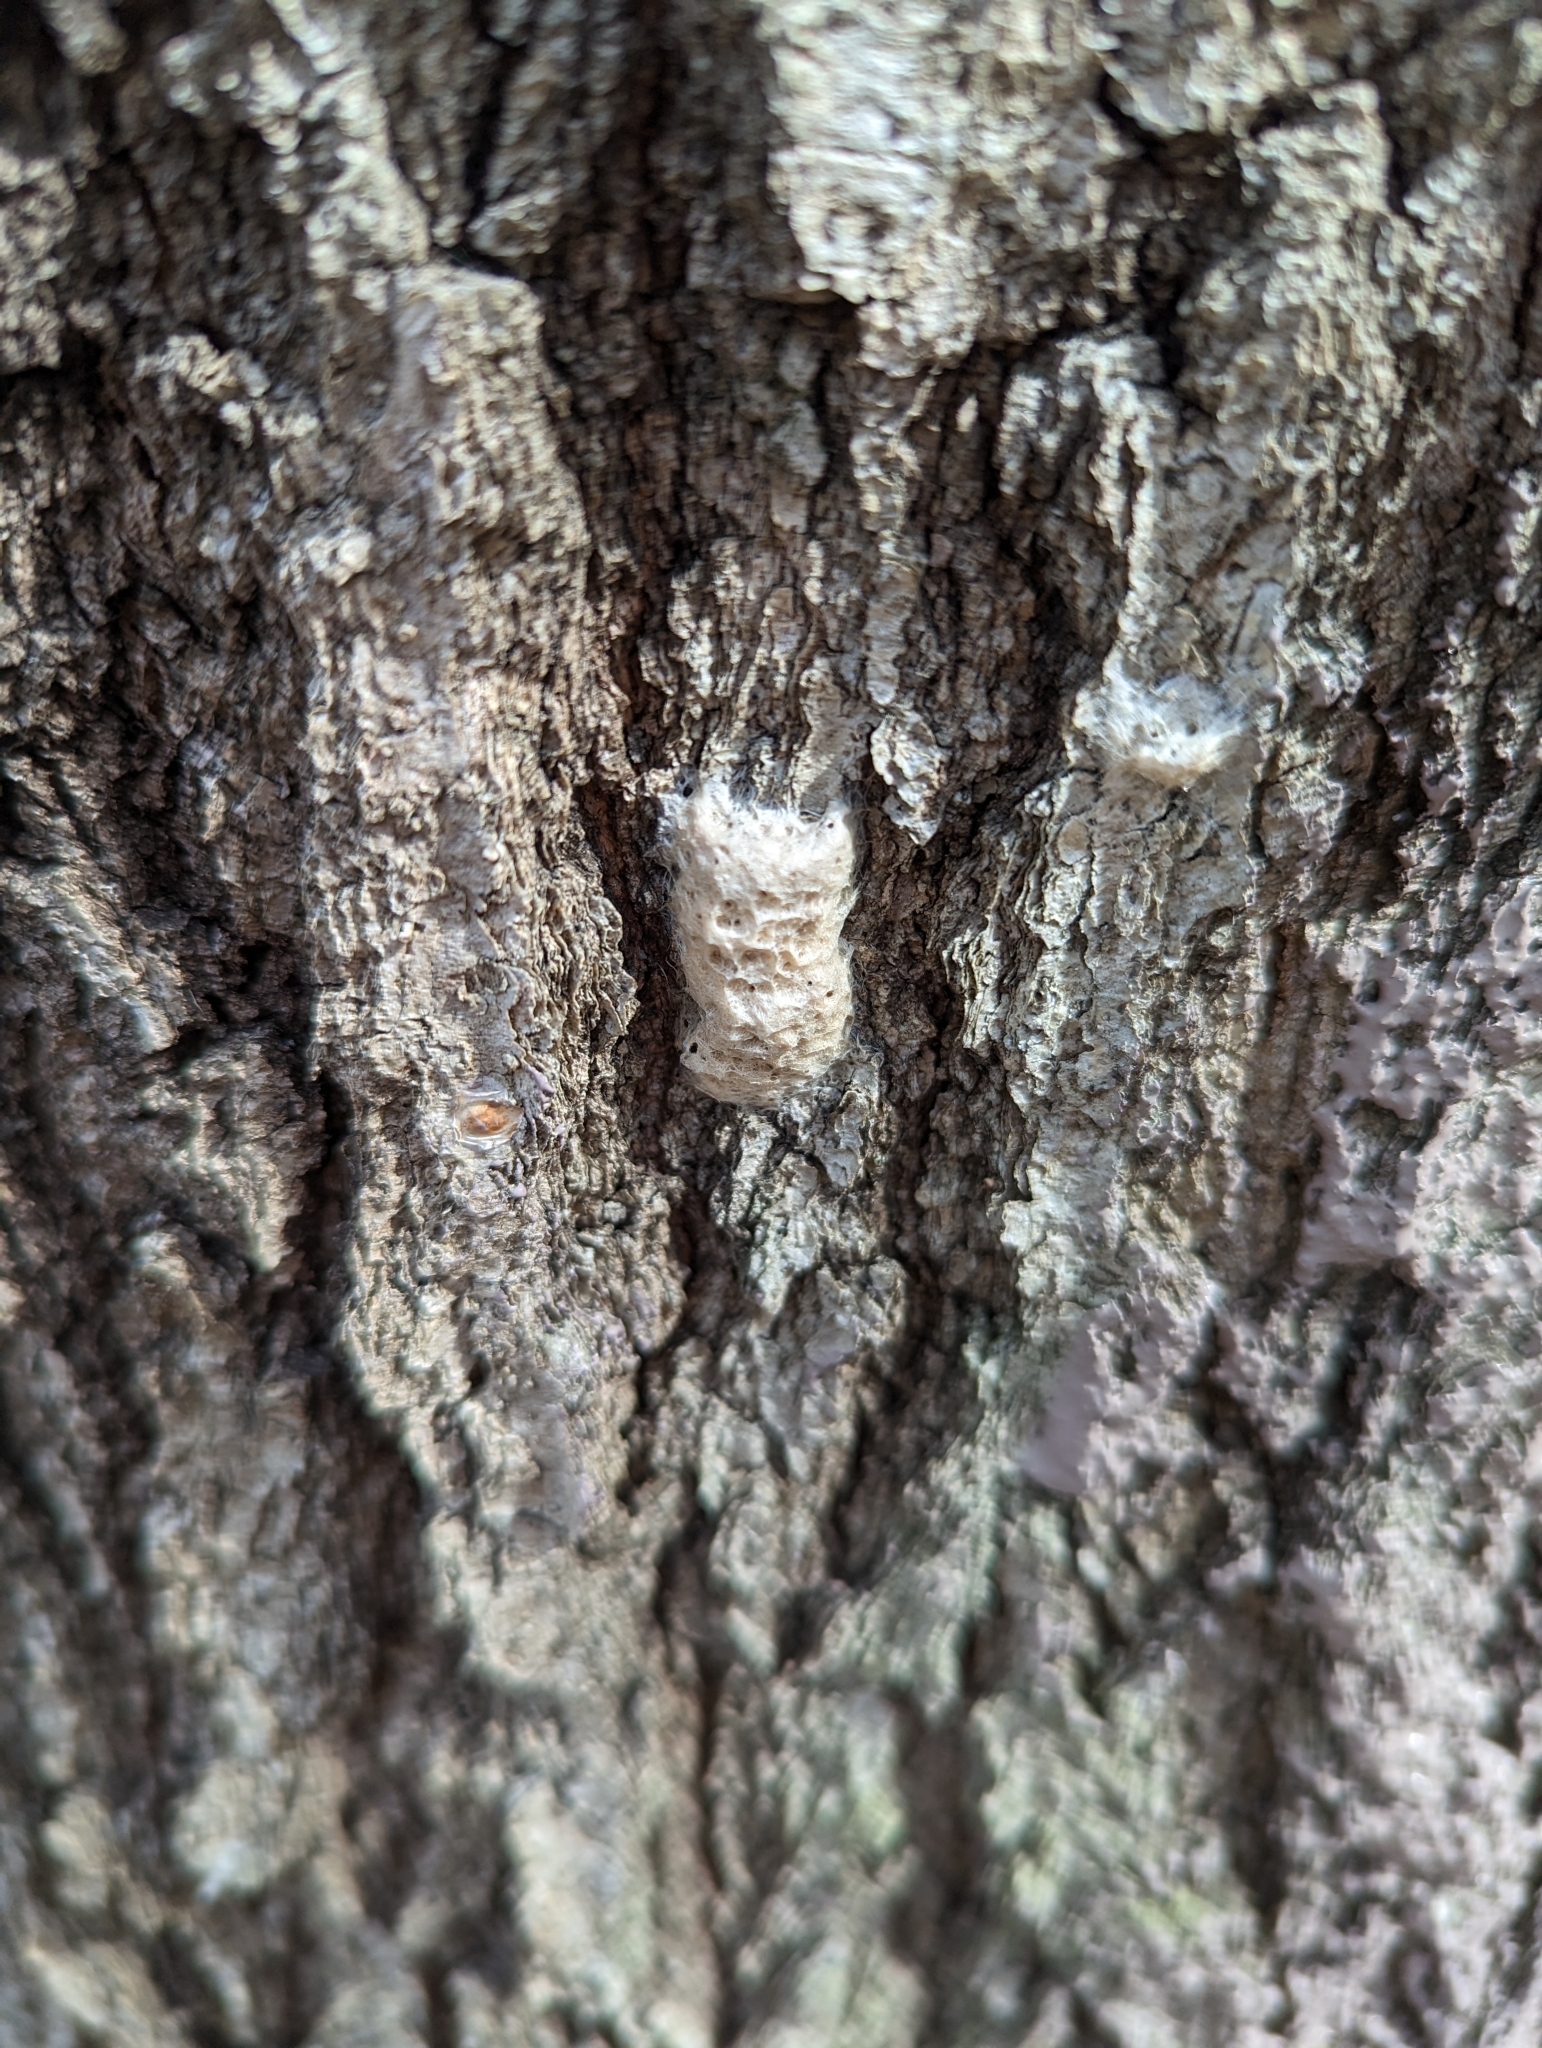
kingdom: Animalia
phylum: Arthropoda
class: Insecta
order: Lepidoptera
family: Erebidae
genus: Lymantria
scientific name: Lymantria dispar
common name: Gypsy moth
